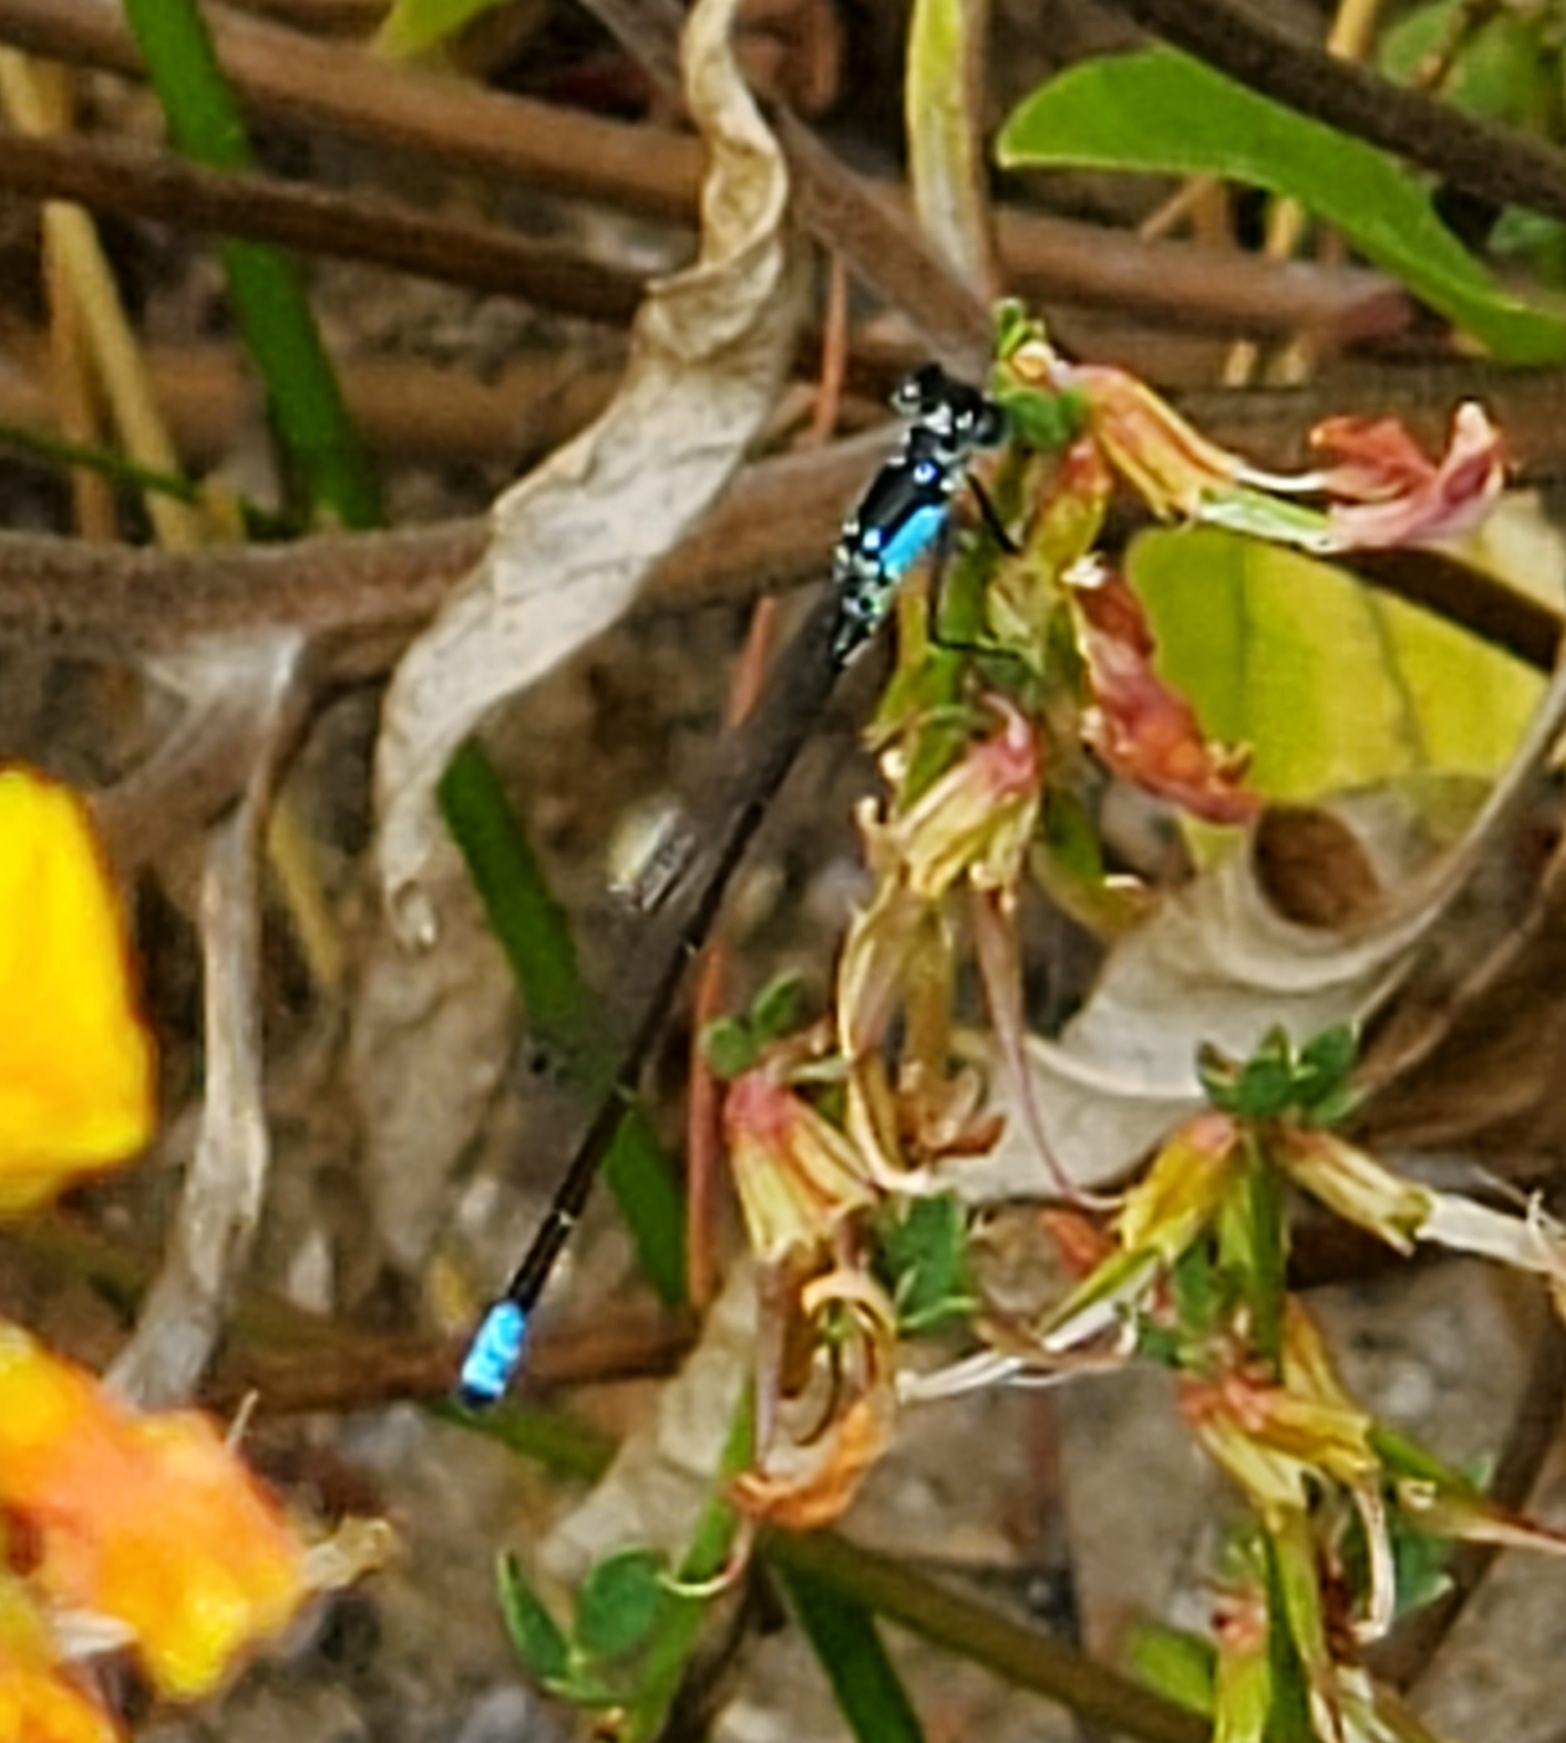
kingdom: Animalia
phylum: Arthropoda
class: Insecta
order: Odonata
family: Coenagrionidae
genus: Ischnura
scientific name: Ischnura cervula
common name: Pacific forktail
